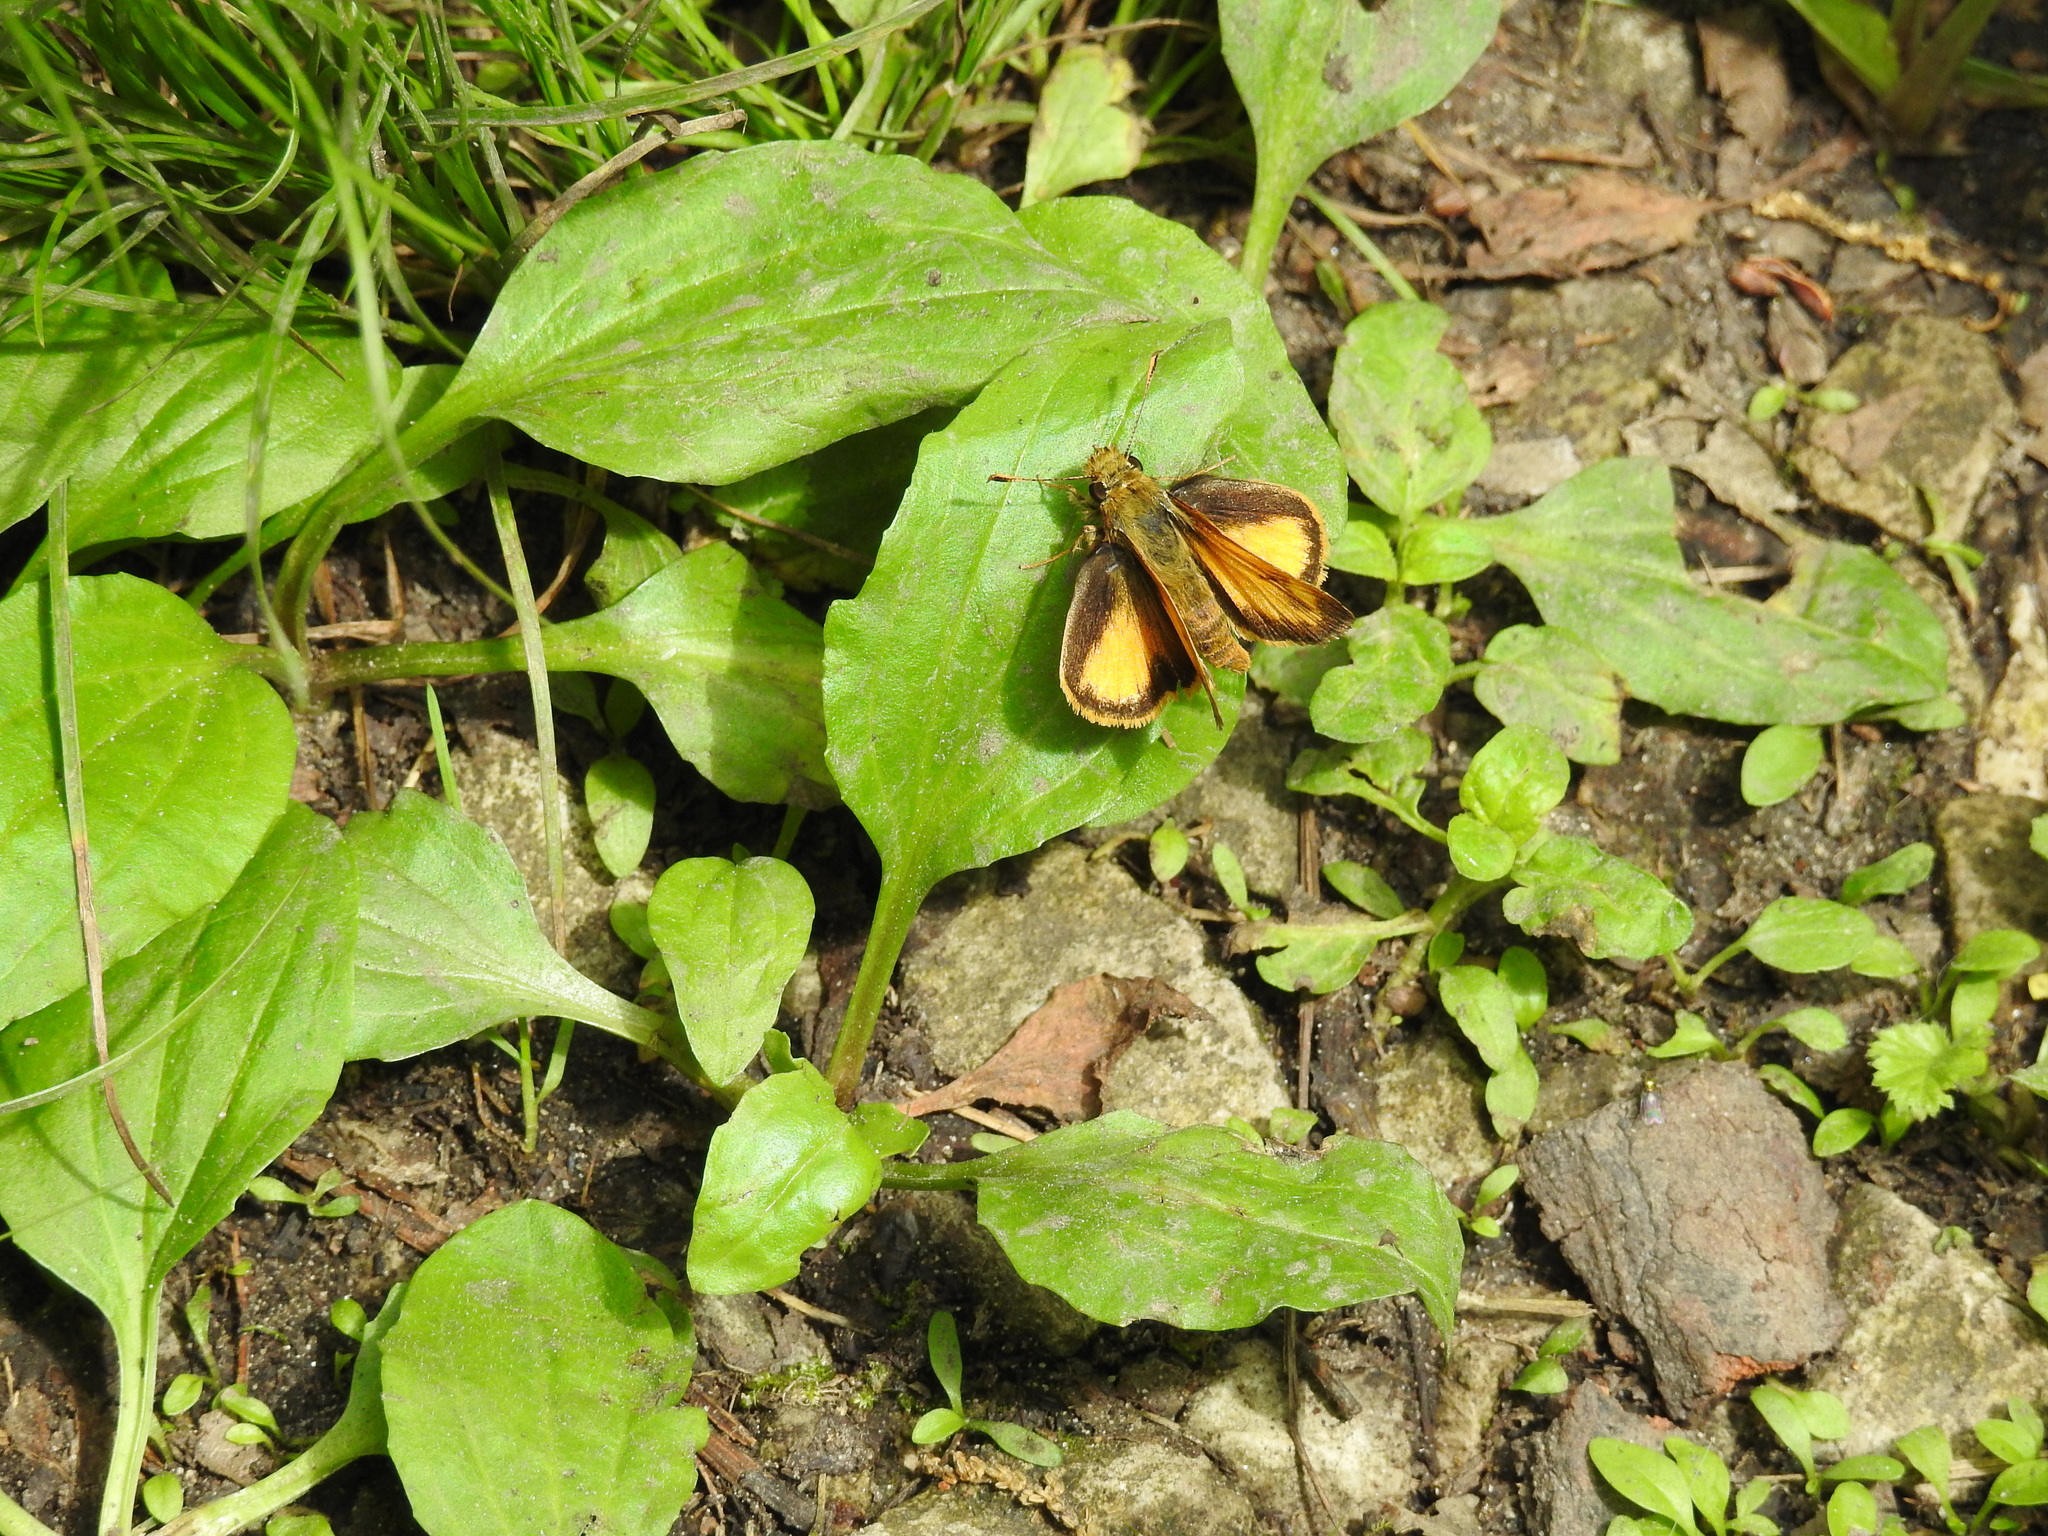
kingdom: Animalia
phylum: Arthropoda
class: Insecta
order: Lepidoptera
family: Hesperiidae
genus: Lon
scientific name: Lon zabulon
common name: Zabulon skipper
